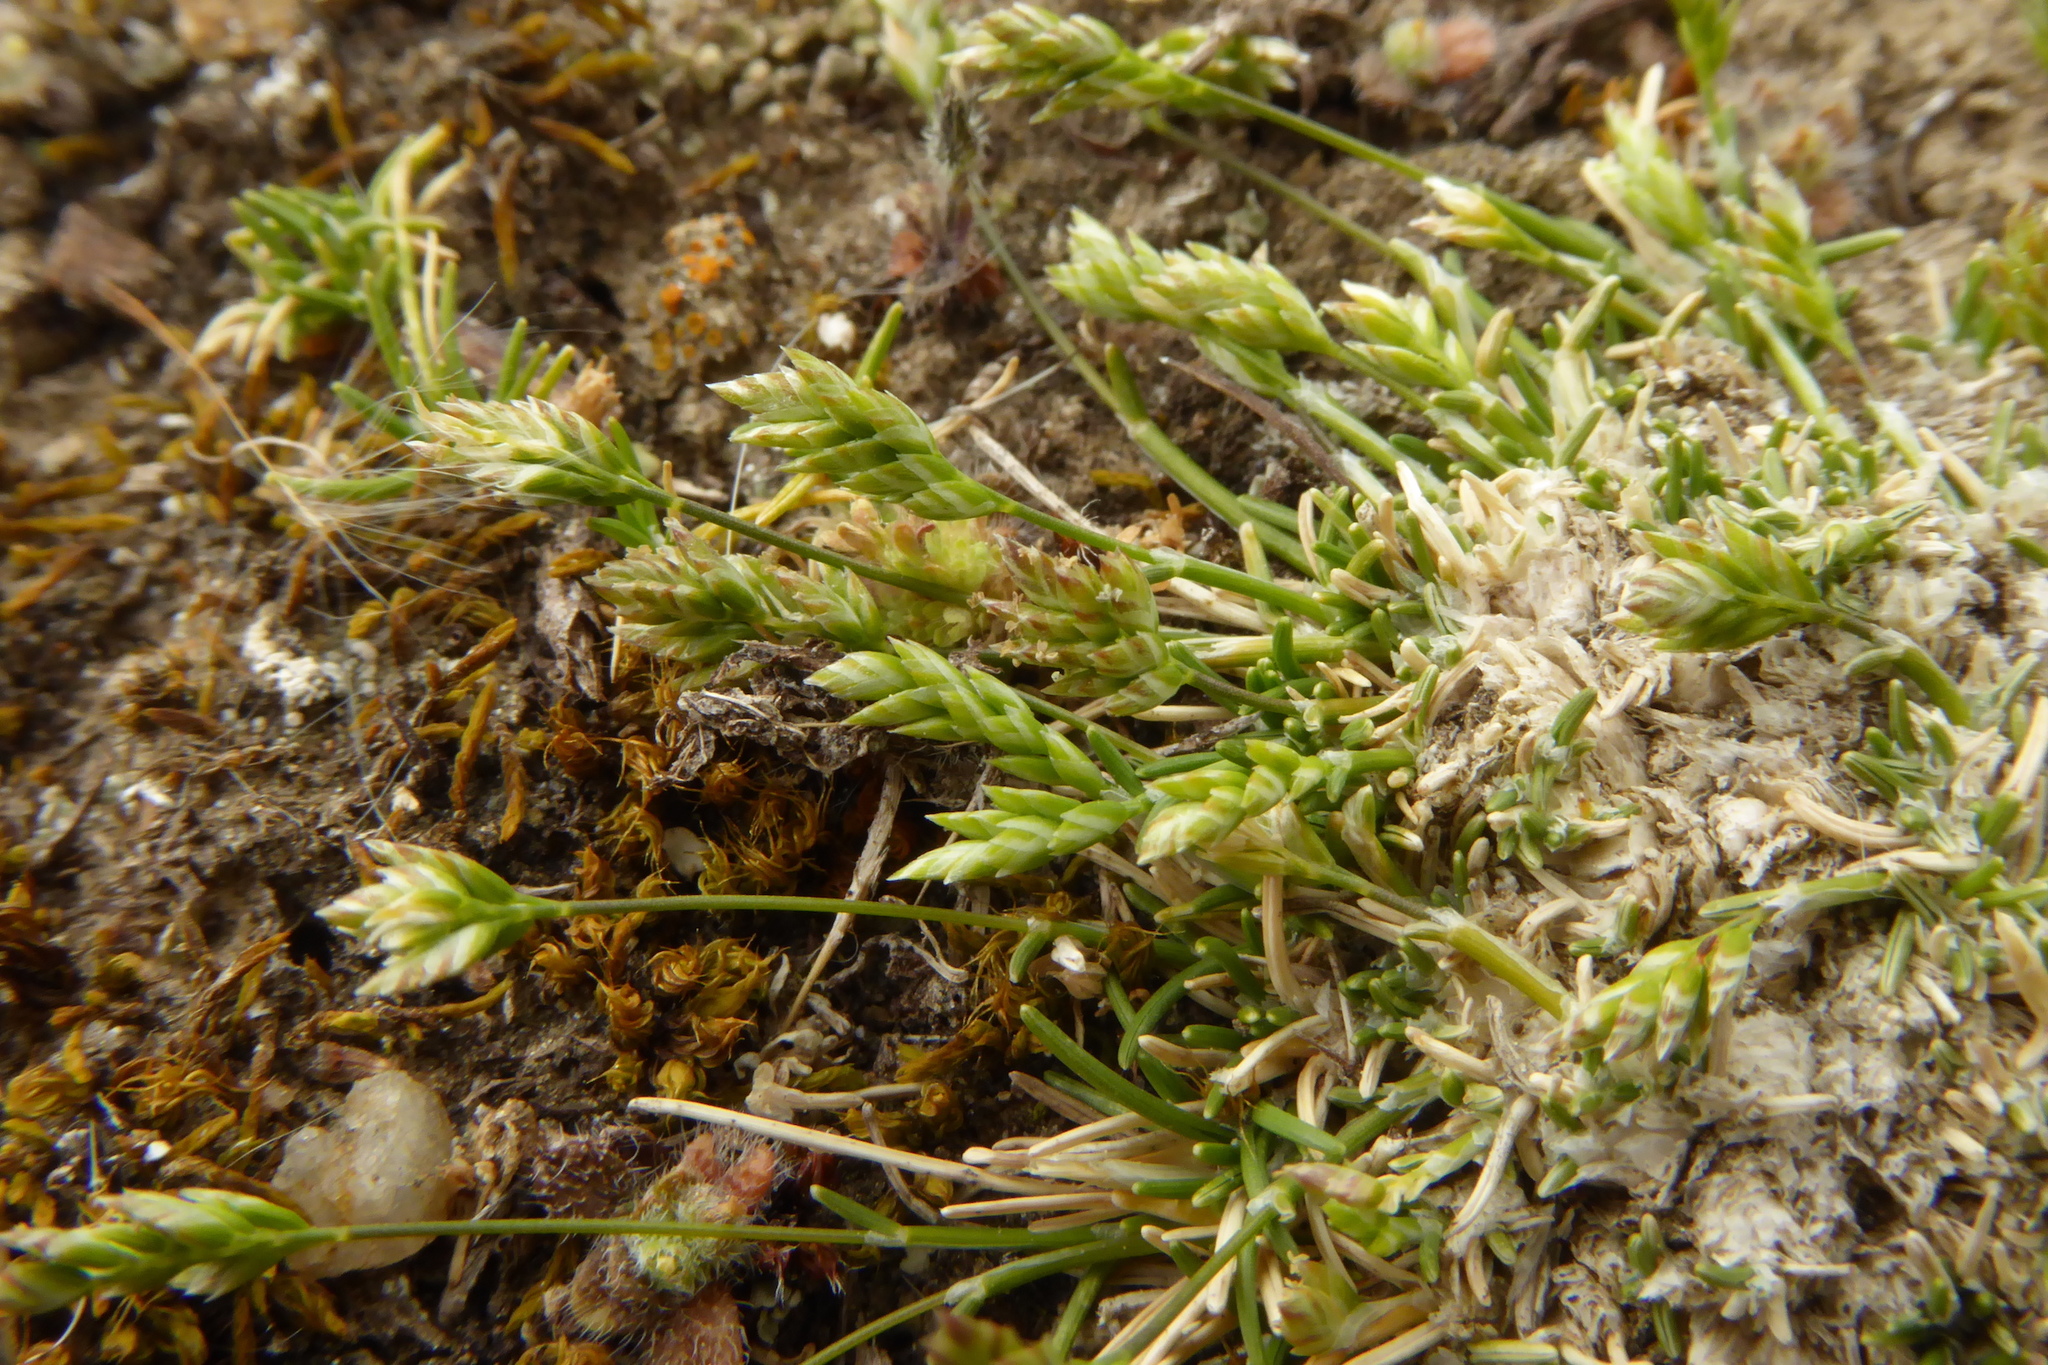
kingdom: Plantae
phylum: Tracheophyta
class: Liliopsida
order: Poales
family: Poaceae
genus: Poa
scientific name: Poa maniototo
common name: Desert poa
